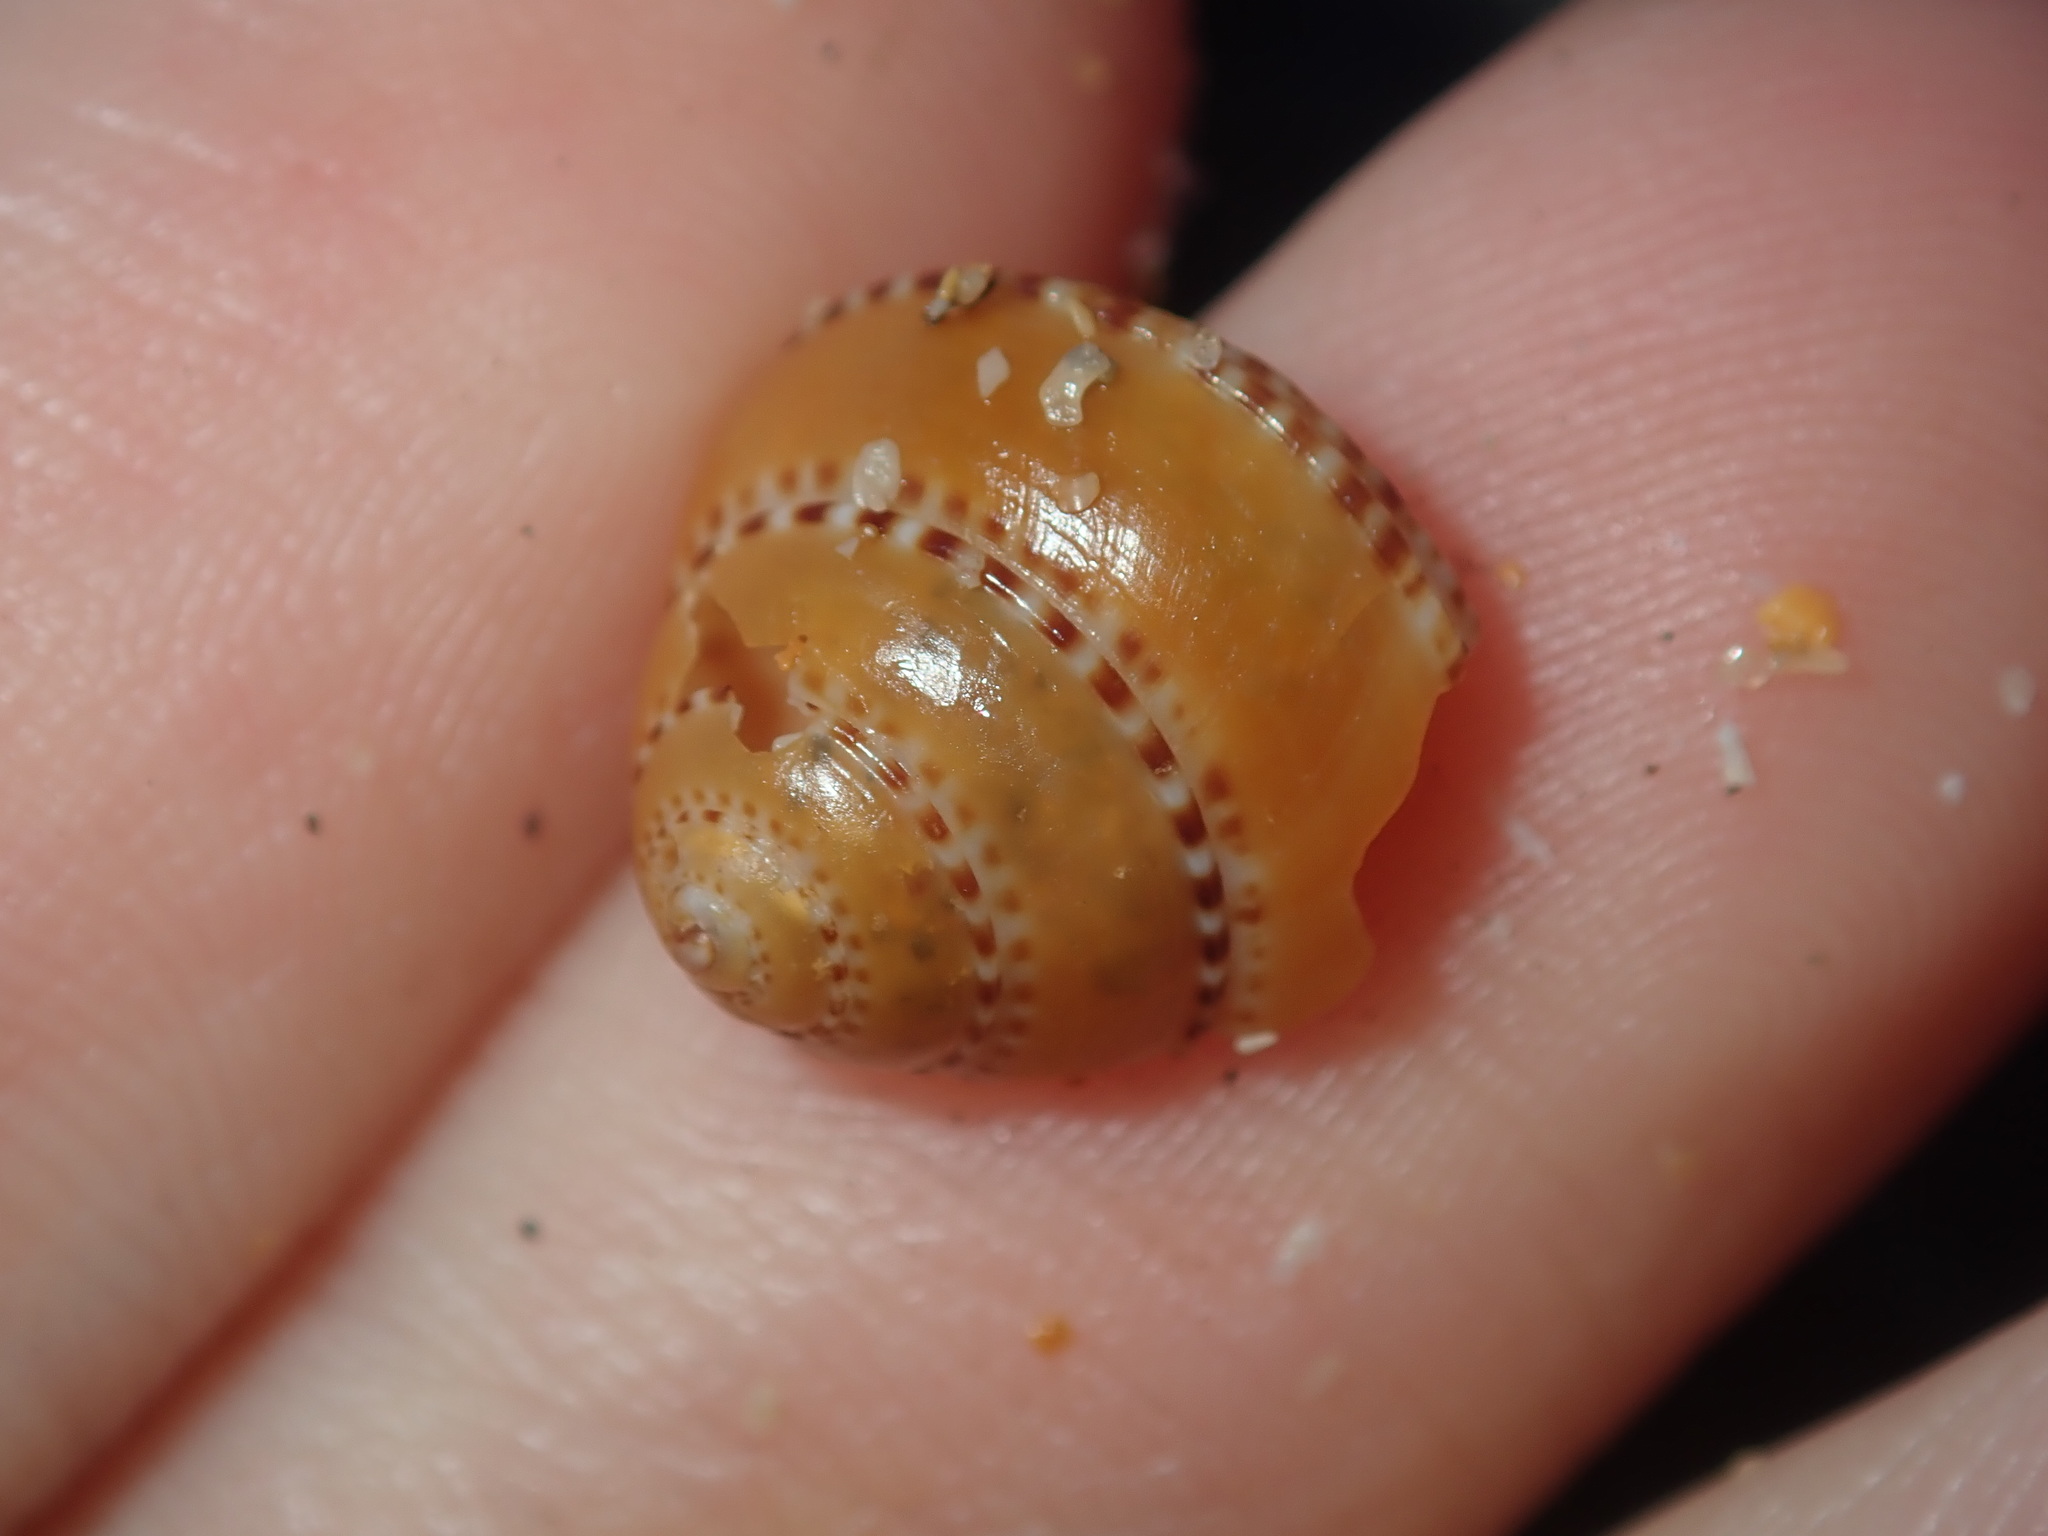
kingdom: Animalia
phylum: Mollusca
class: Gastropoda
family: Architectonicidae
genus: Philippia
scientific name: Philippia lutea
